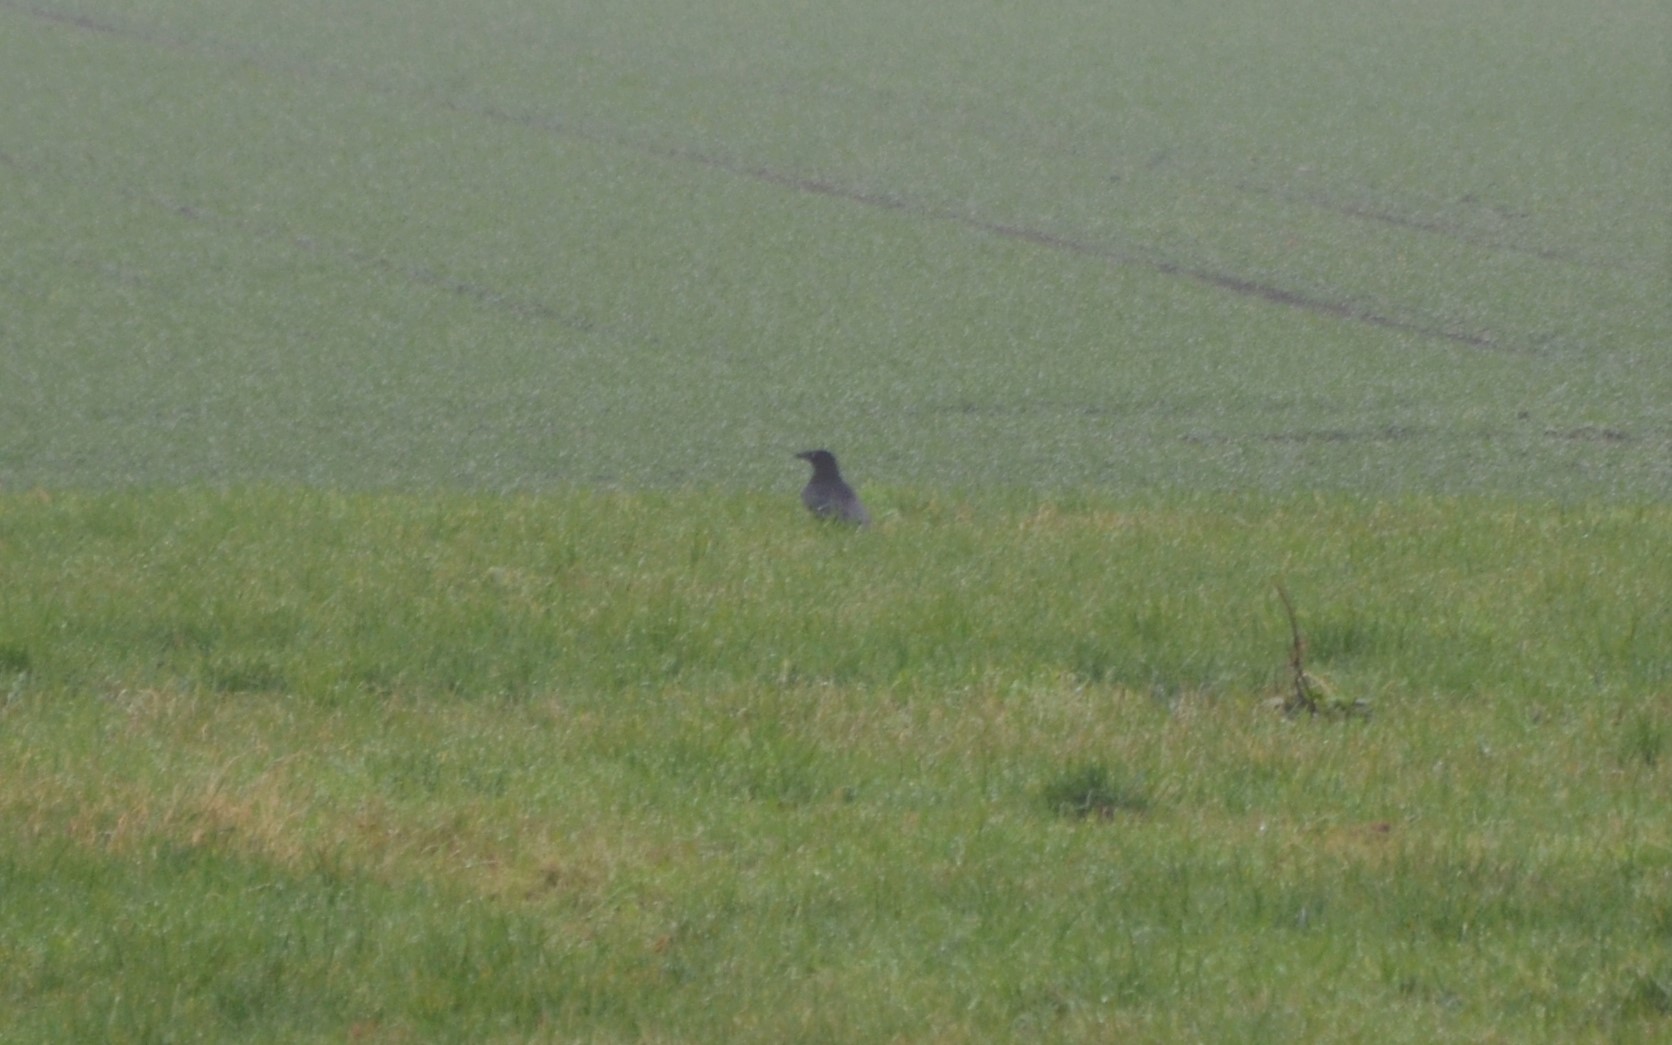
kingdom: Animalia
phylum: Chordata
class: Aves
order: Passeriformes
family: Corvidae
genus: Corvus
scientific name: Corvus corone
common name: Carrion crow
